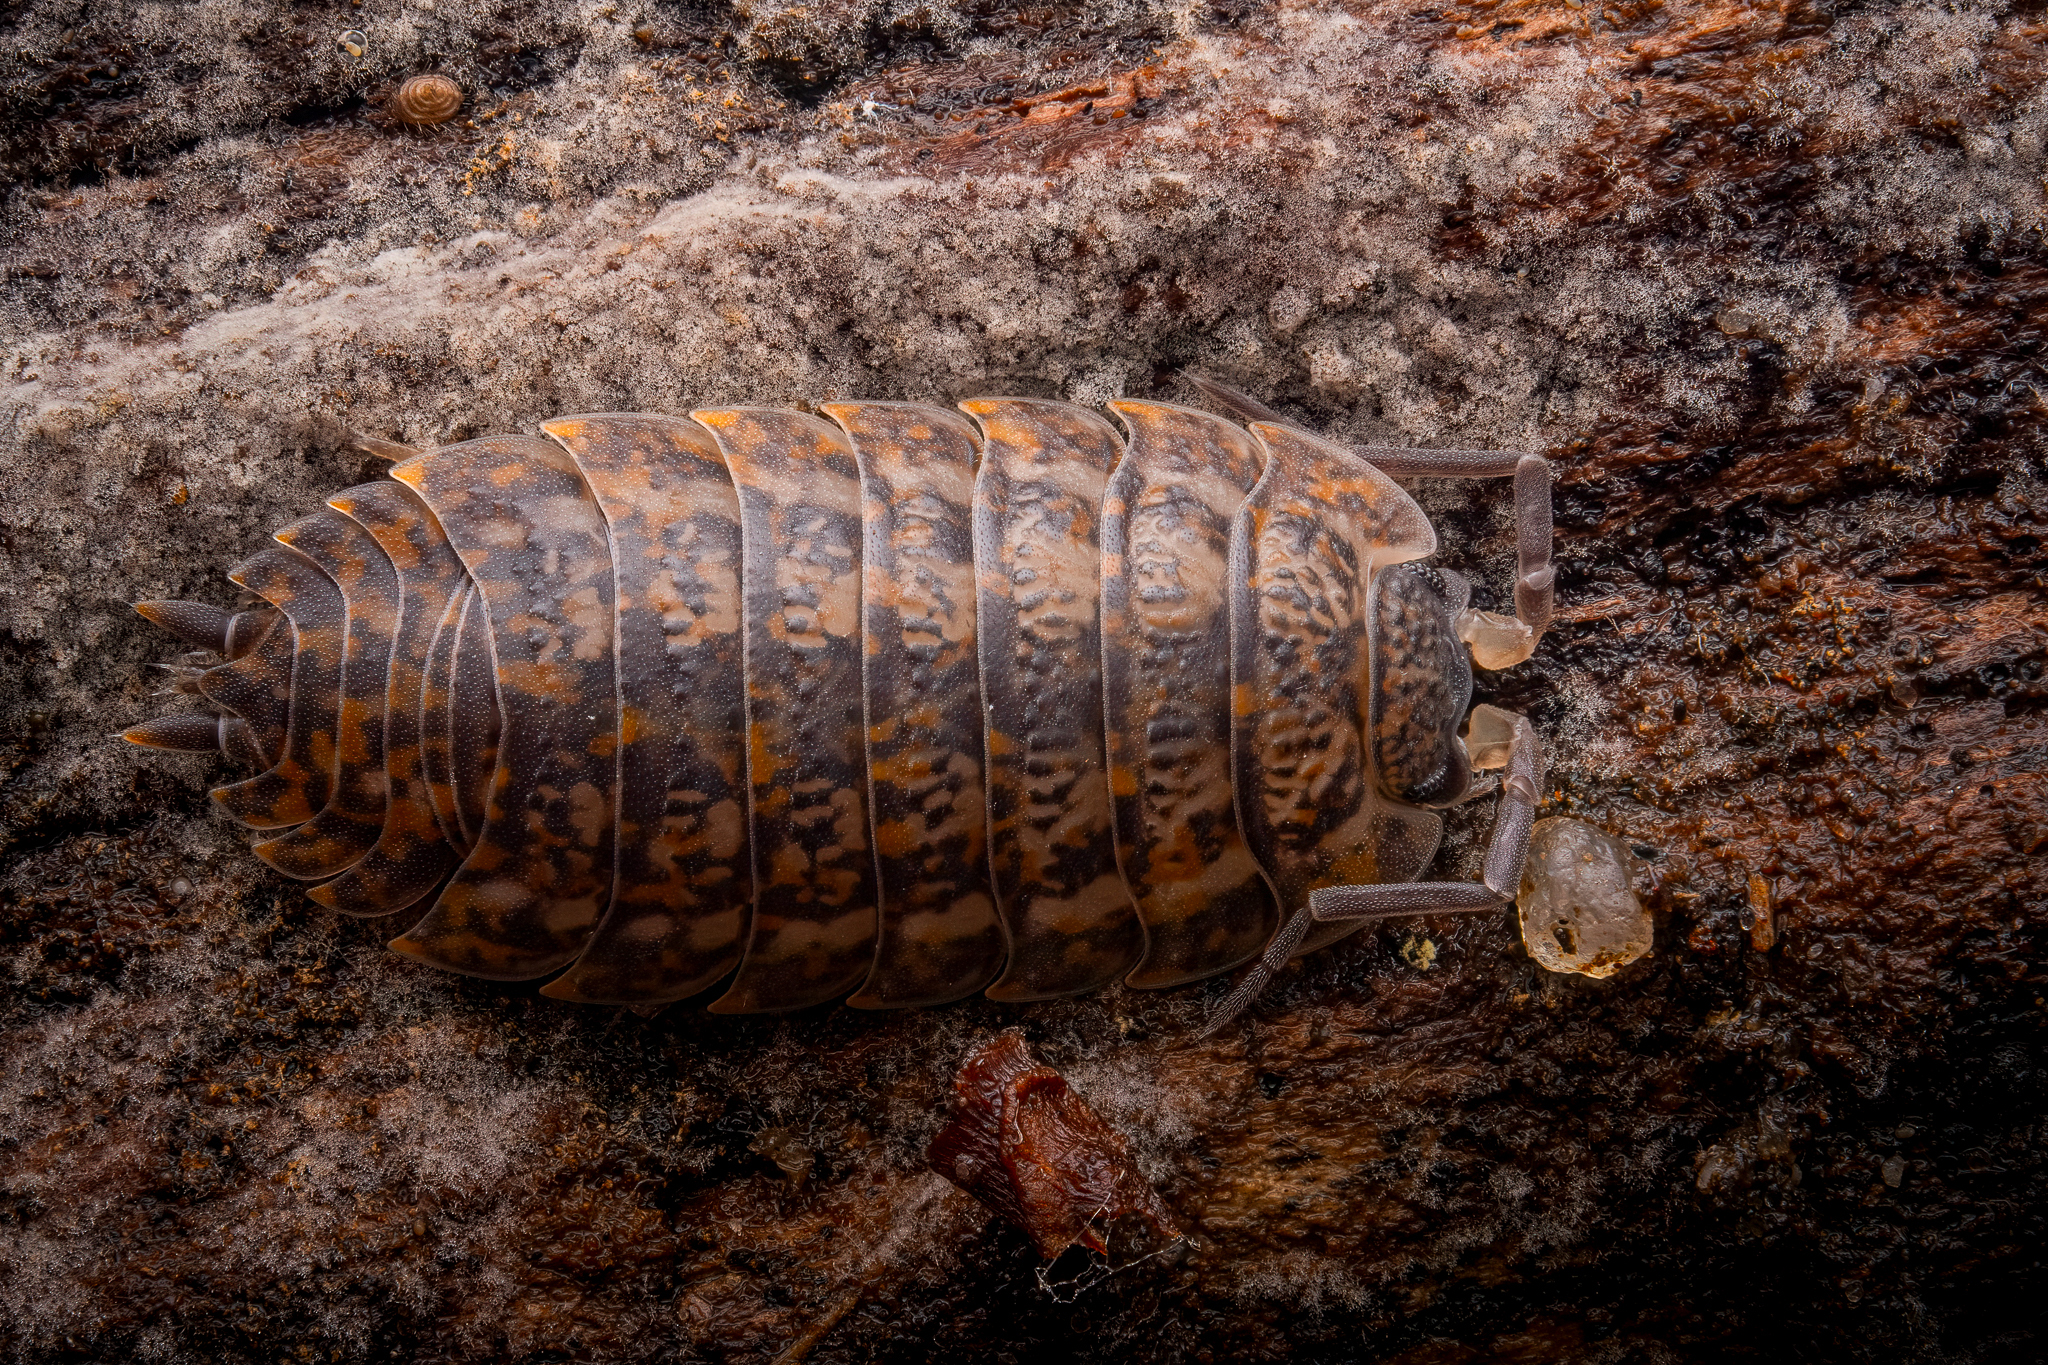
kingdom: Animalia
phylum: Arthropoda
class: Malacostraca
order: Isopoda
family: Trachelipodidae
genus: Trachelipus
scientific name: Trachelipus rathkii
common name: Isopod
